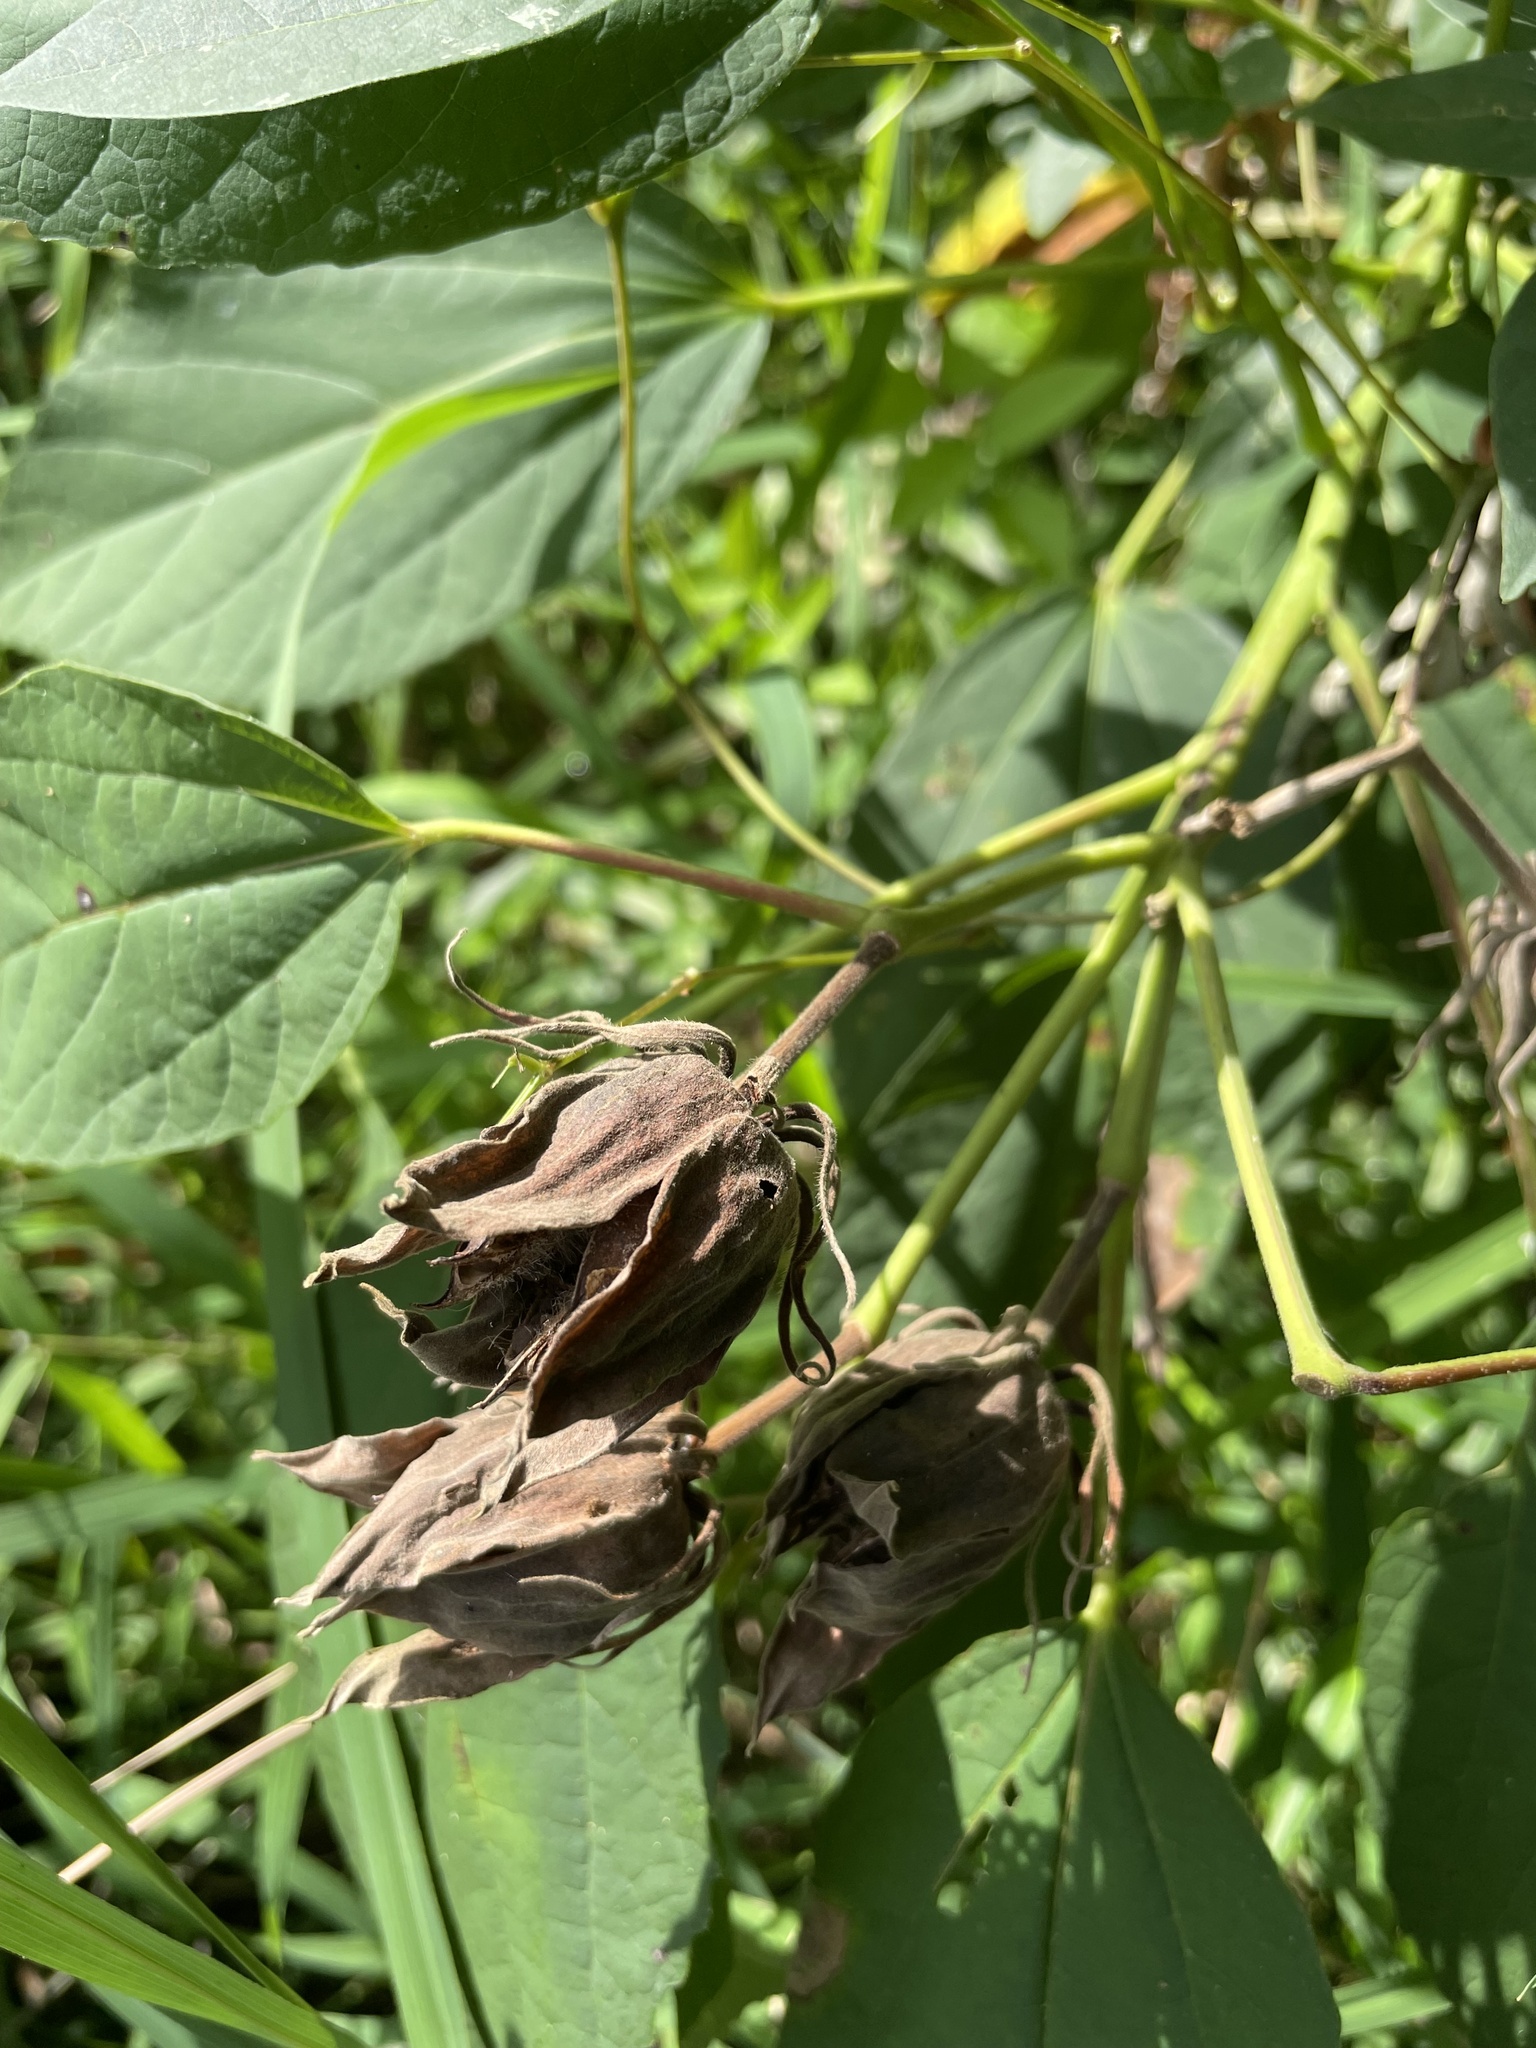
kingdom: Plantae
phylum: Tracheophyta
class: Magnoliopsida
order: Malvales
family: Malvaceae
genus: Hibiscus
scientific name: Hibiscus moscheutos
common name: Common rose-mallow
